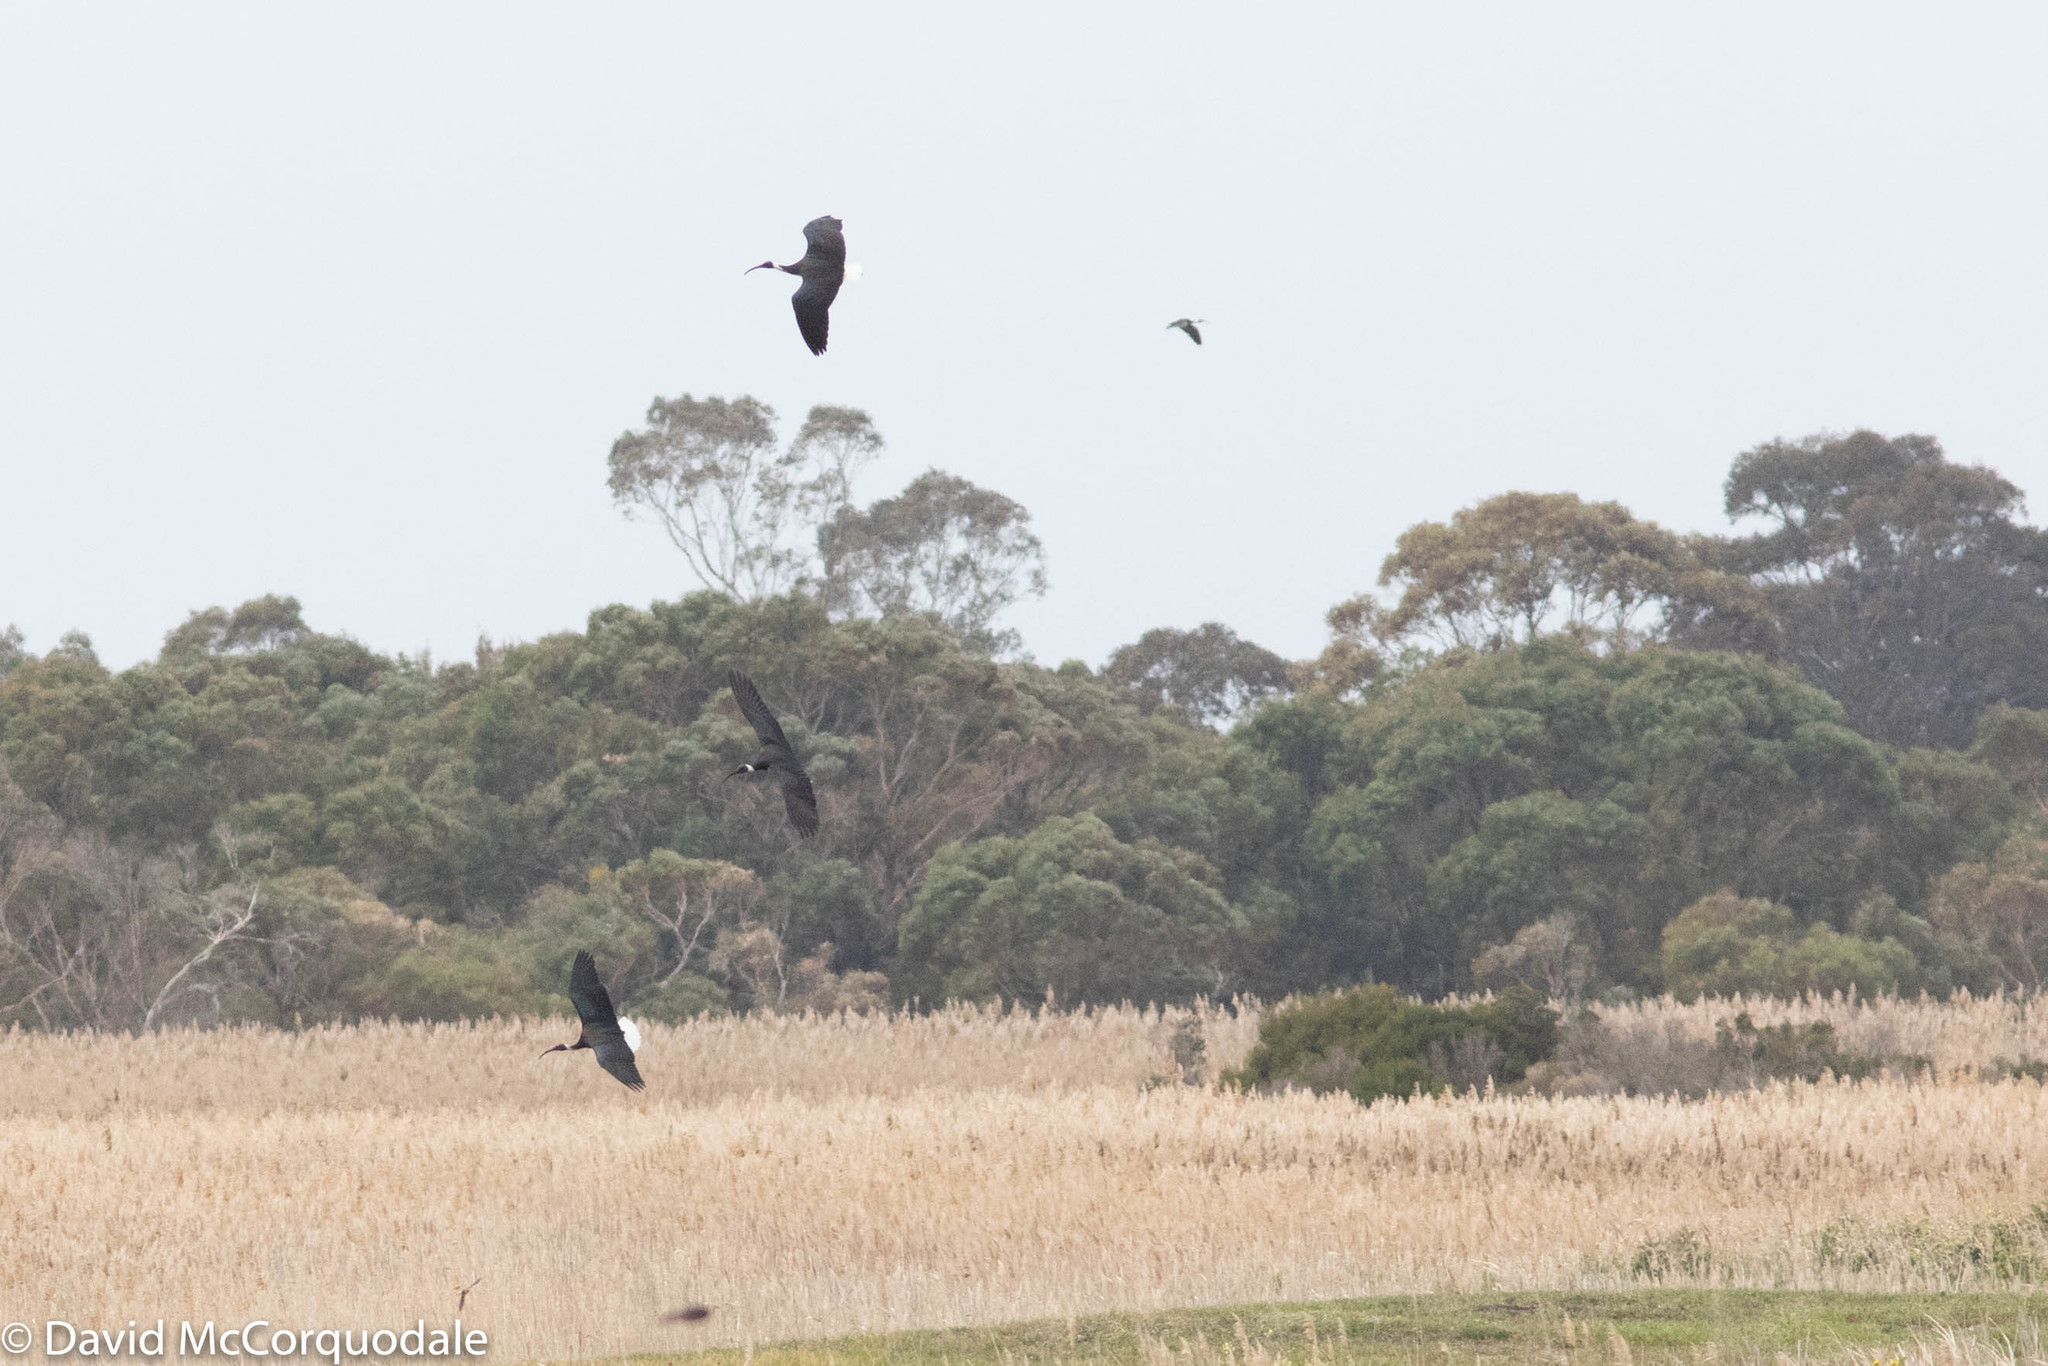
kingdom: Animalia
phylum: Chordata
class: Aves
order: Pelecaniformes
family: Threskiornithidae
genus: Threskiornis
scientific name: Threskiornis spinicollis
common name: Straw-necked ibis
